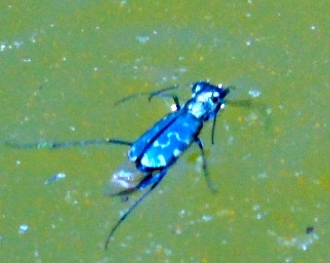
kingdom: Animalia
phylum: Arthropoda
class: Insecta
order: Coleoptera
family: Carabidae
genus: Cicindela
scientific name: Cicindela trifasciata
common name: Mudflat tiger beetle
